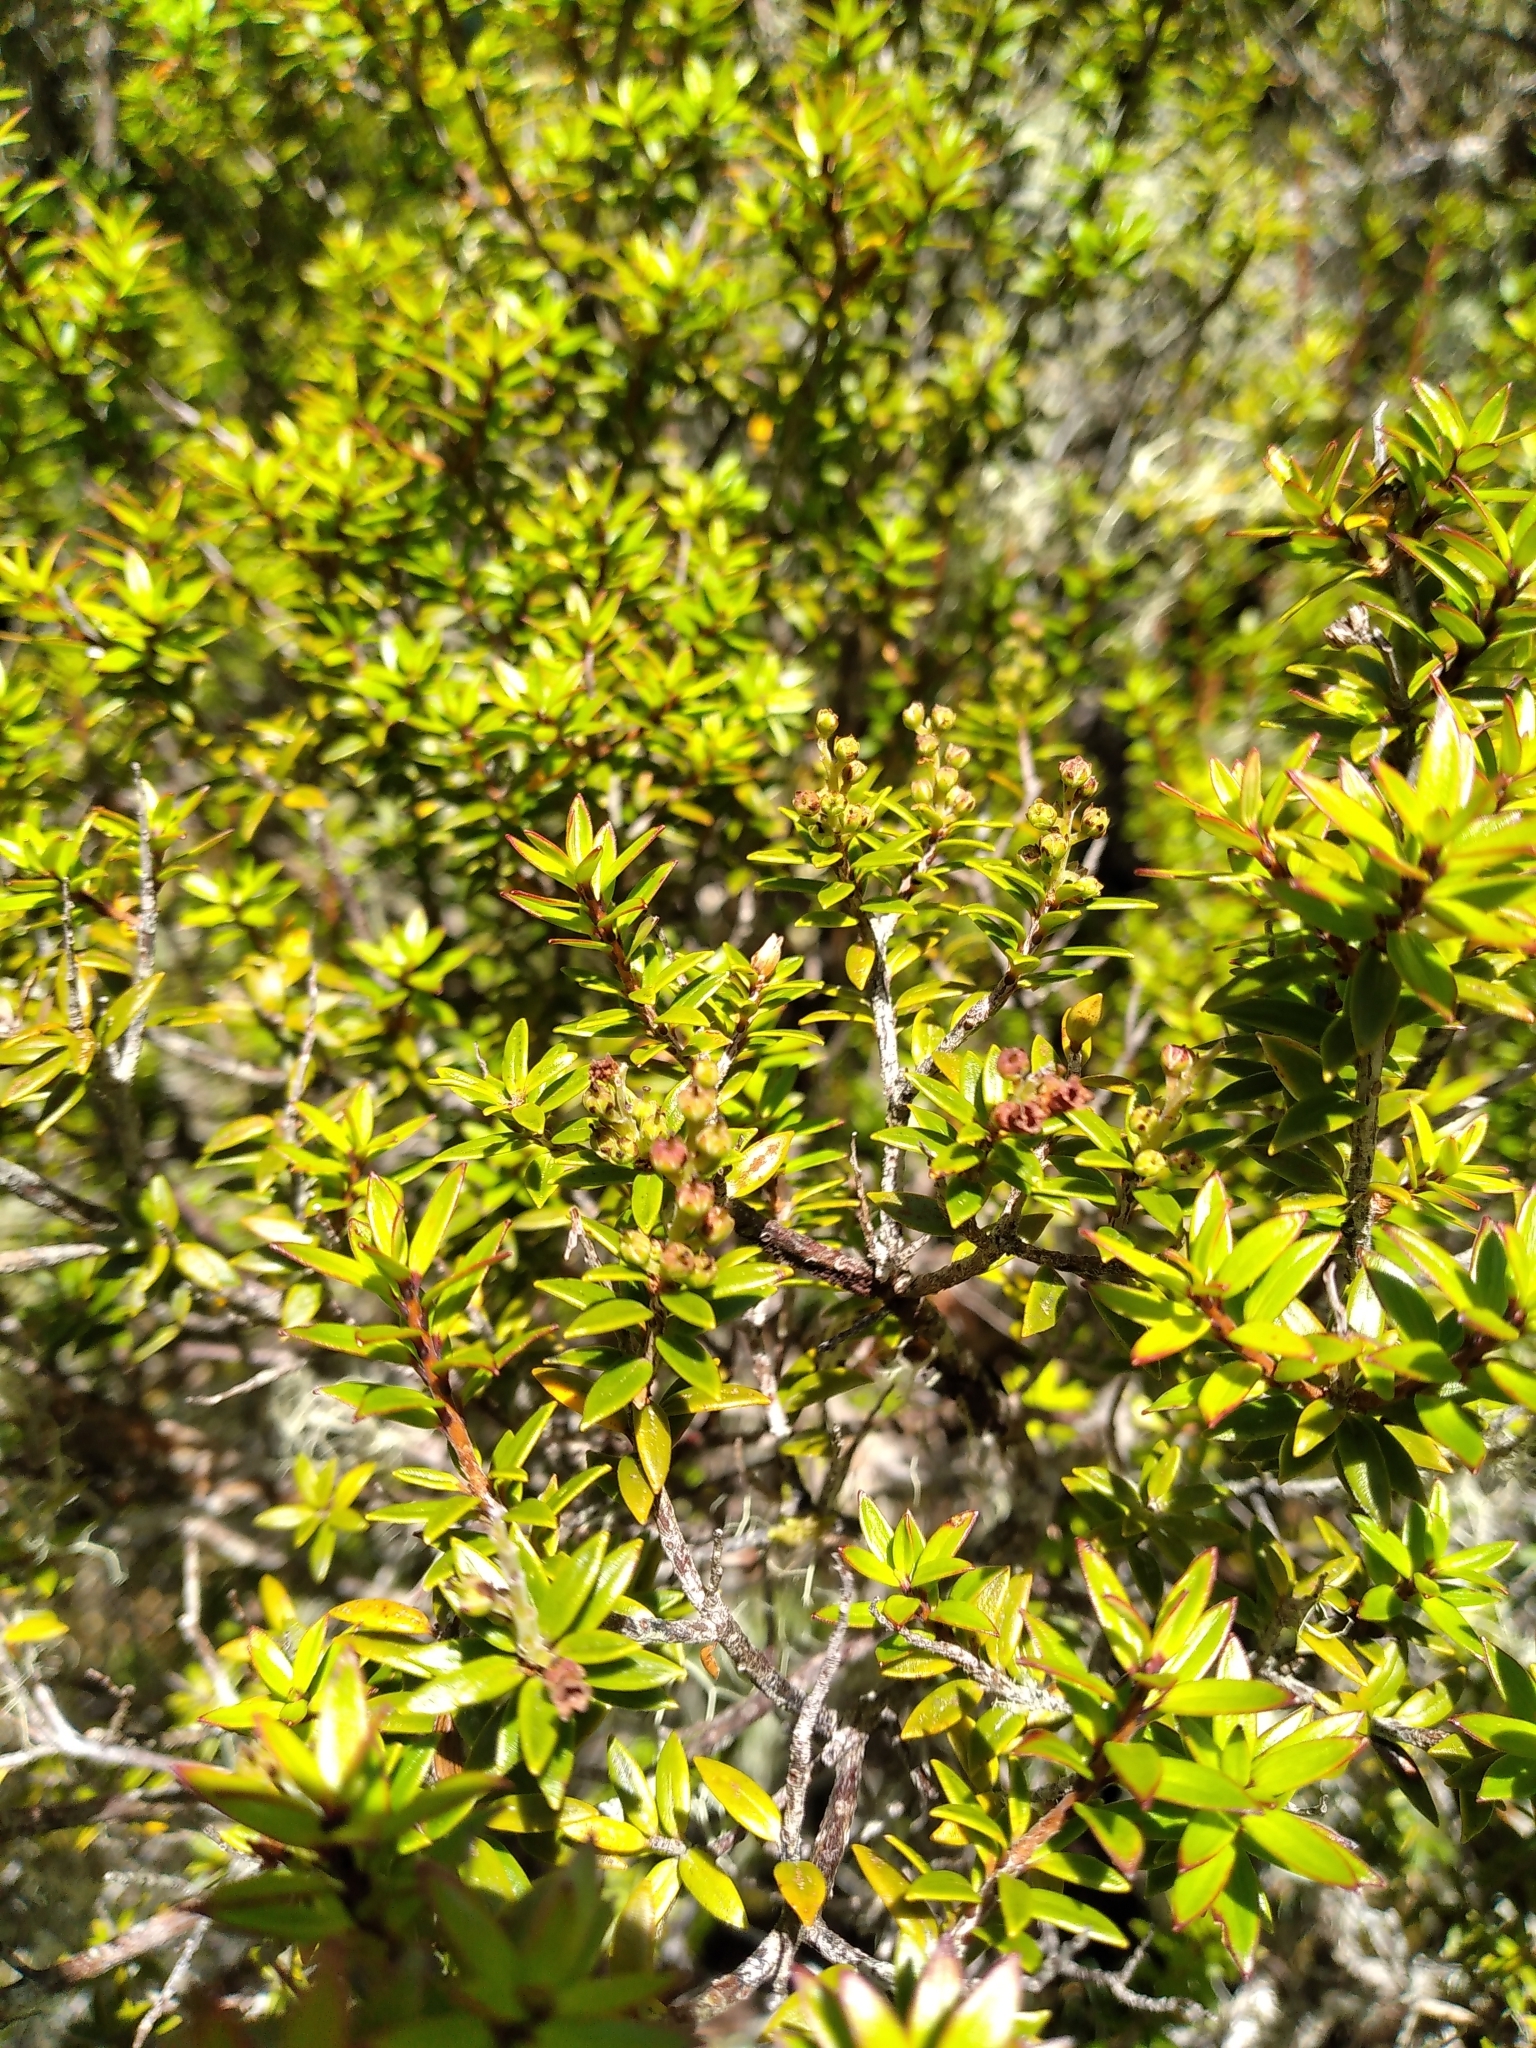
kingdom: Plantae
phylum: Tracheophyta
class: Magnoliopsida
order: Ericales
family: Ericaceae
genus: Archeria
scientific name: Archeria traversii
